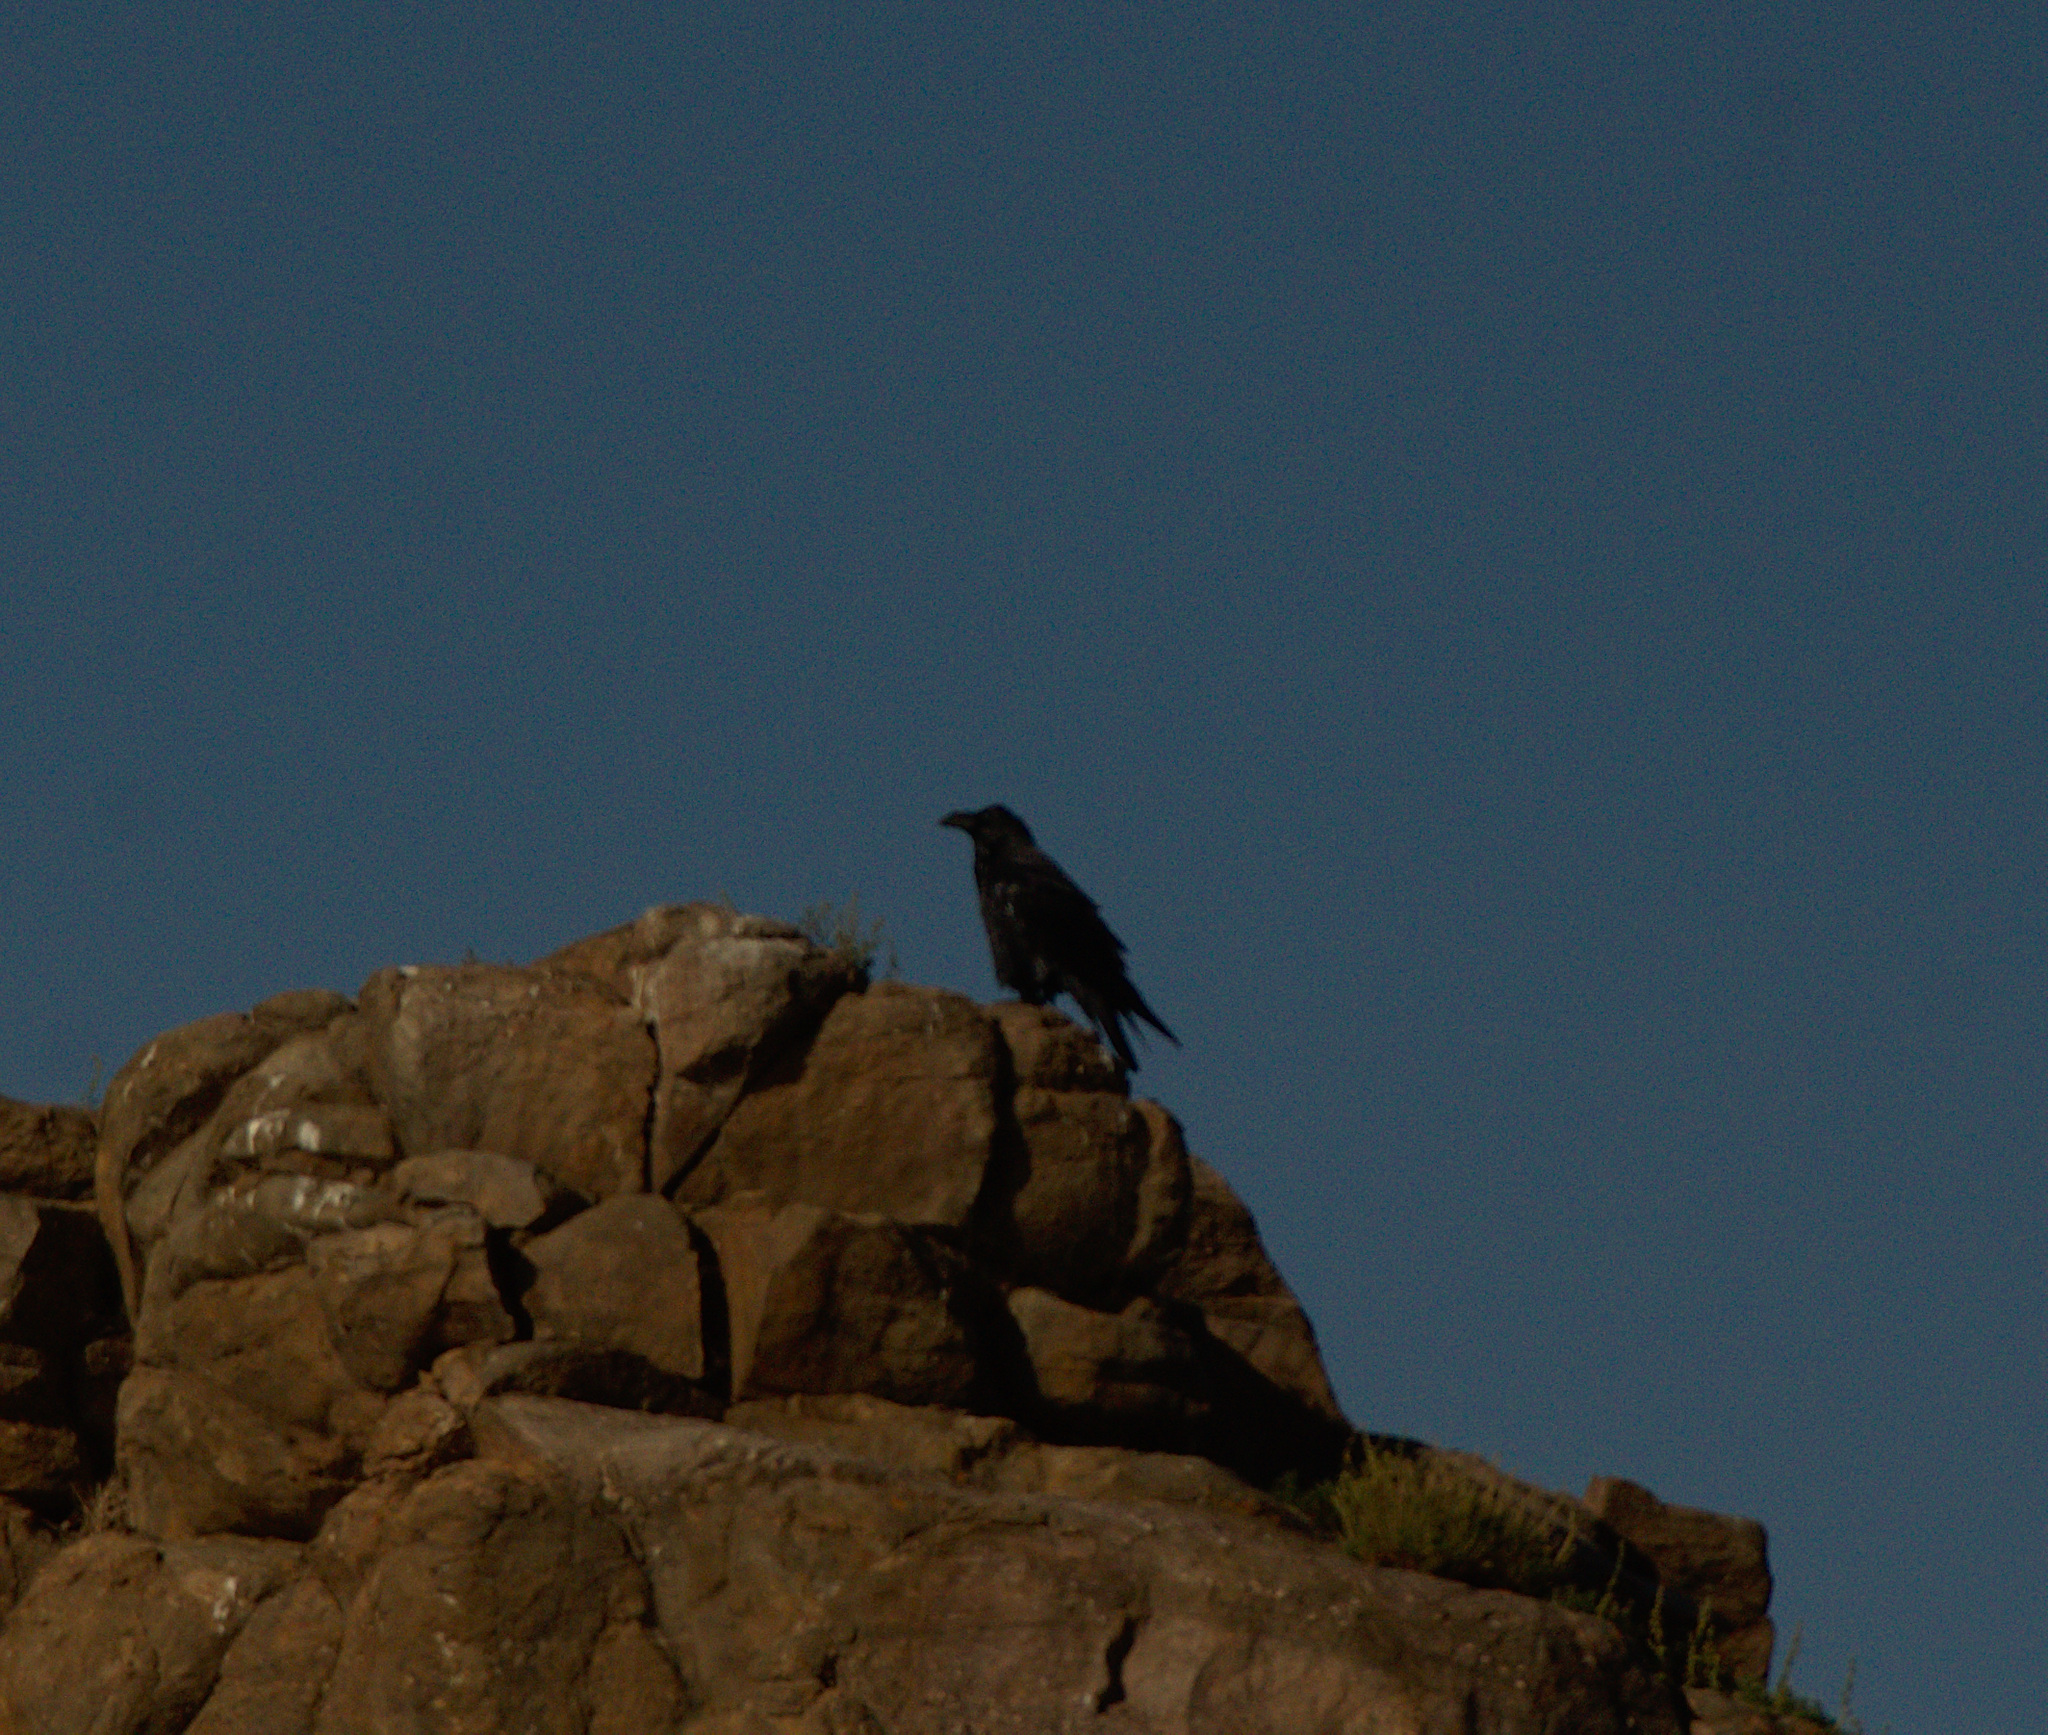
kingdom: Animalia
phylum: Chordata
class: Aves
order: Passeriformes
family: Corvidae
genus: Corvus
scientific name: Corvus corax
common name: Common raven
